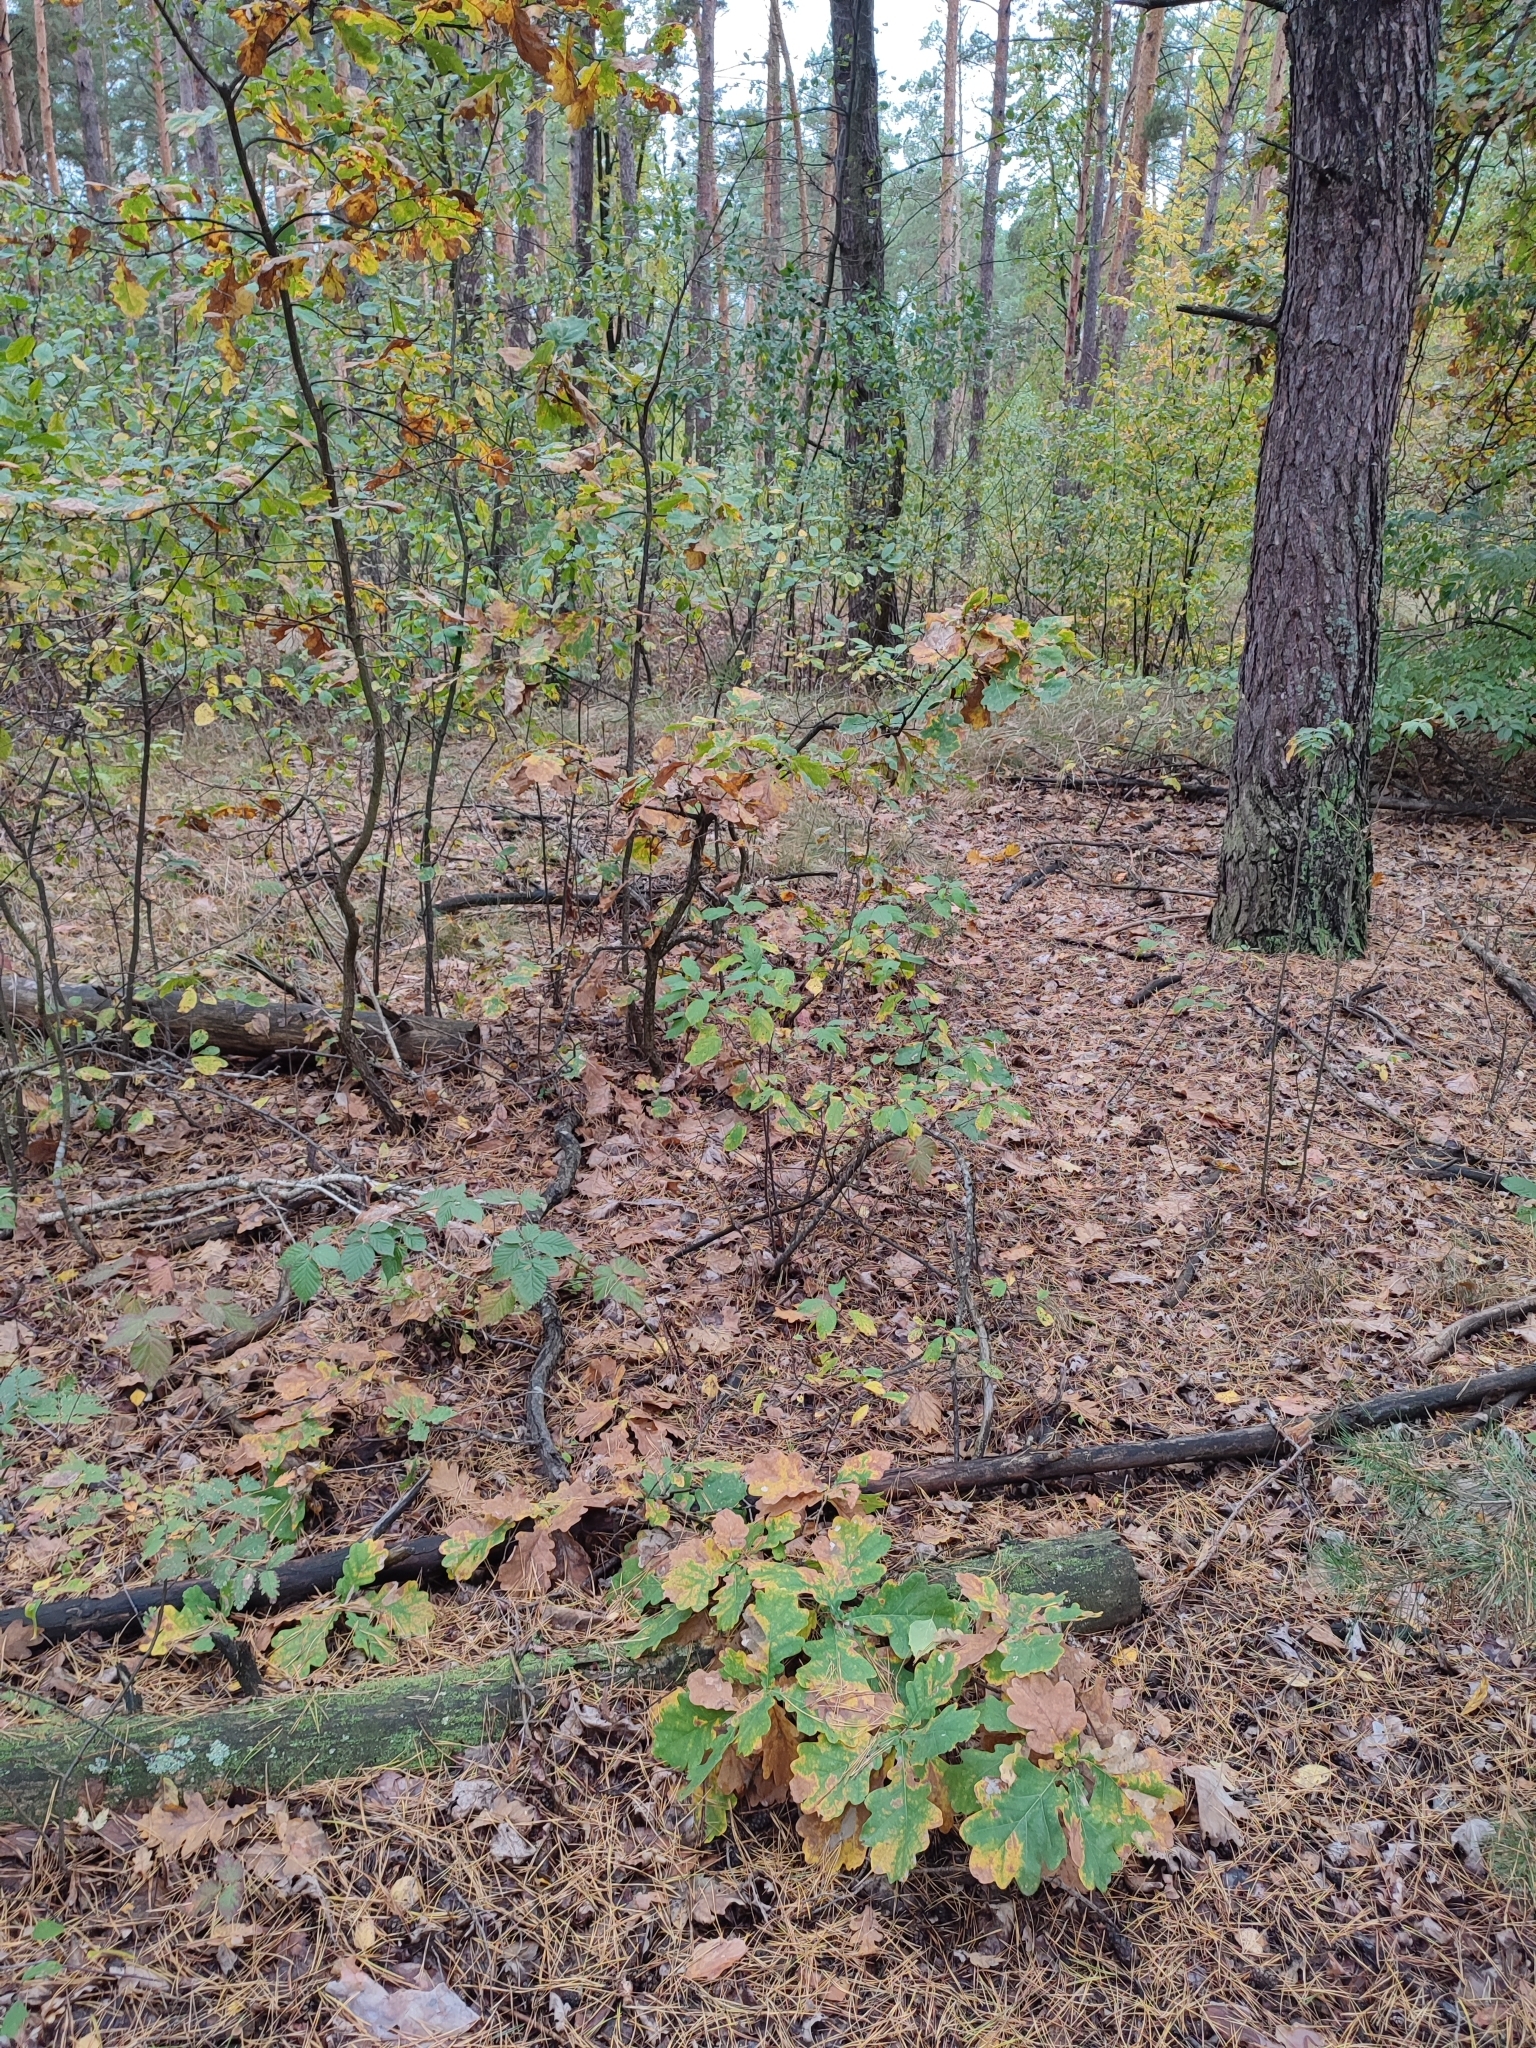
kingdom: Plantae
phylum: Tracheophyta
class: Magnoliopsida
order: Fagales
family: Fagaceae
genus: Quercus
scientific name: Quercus robur
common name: Pedunculate oak
